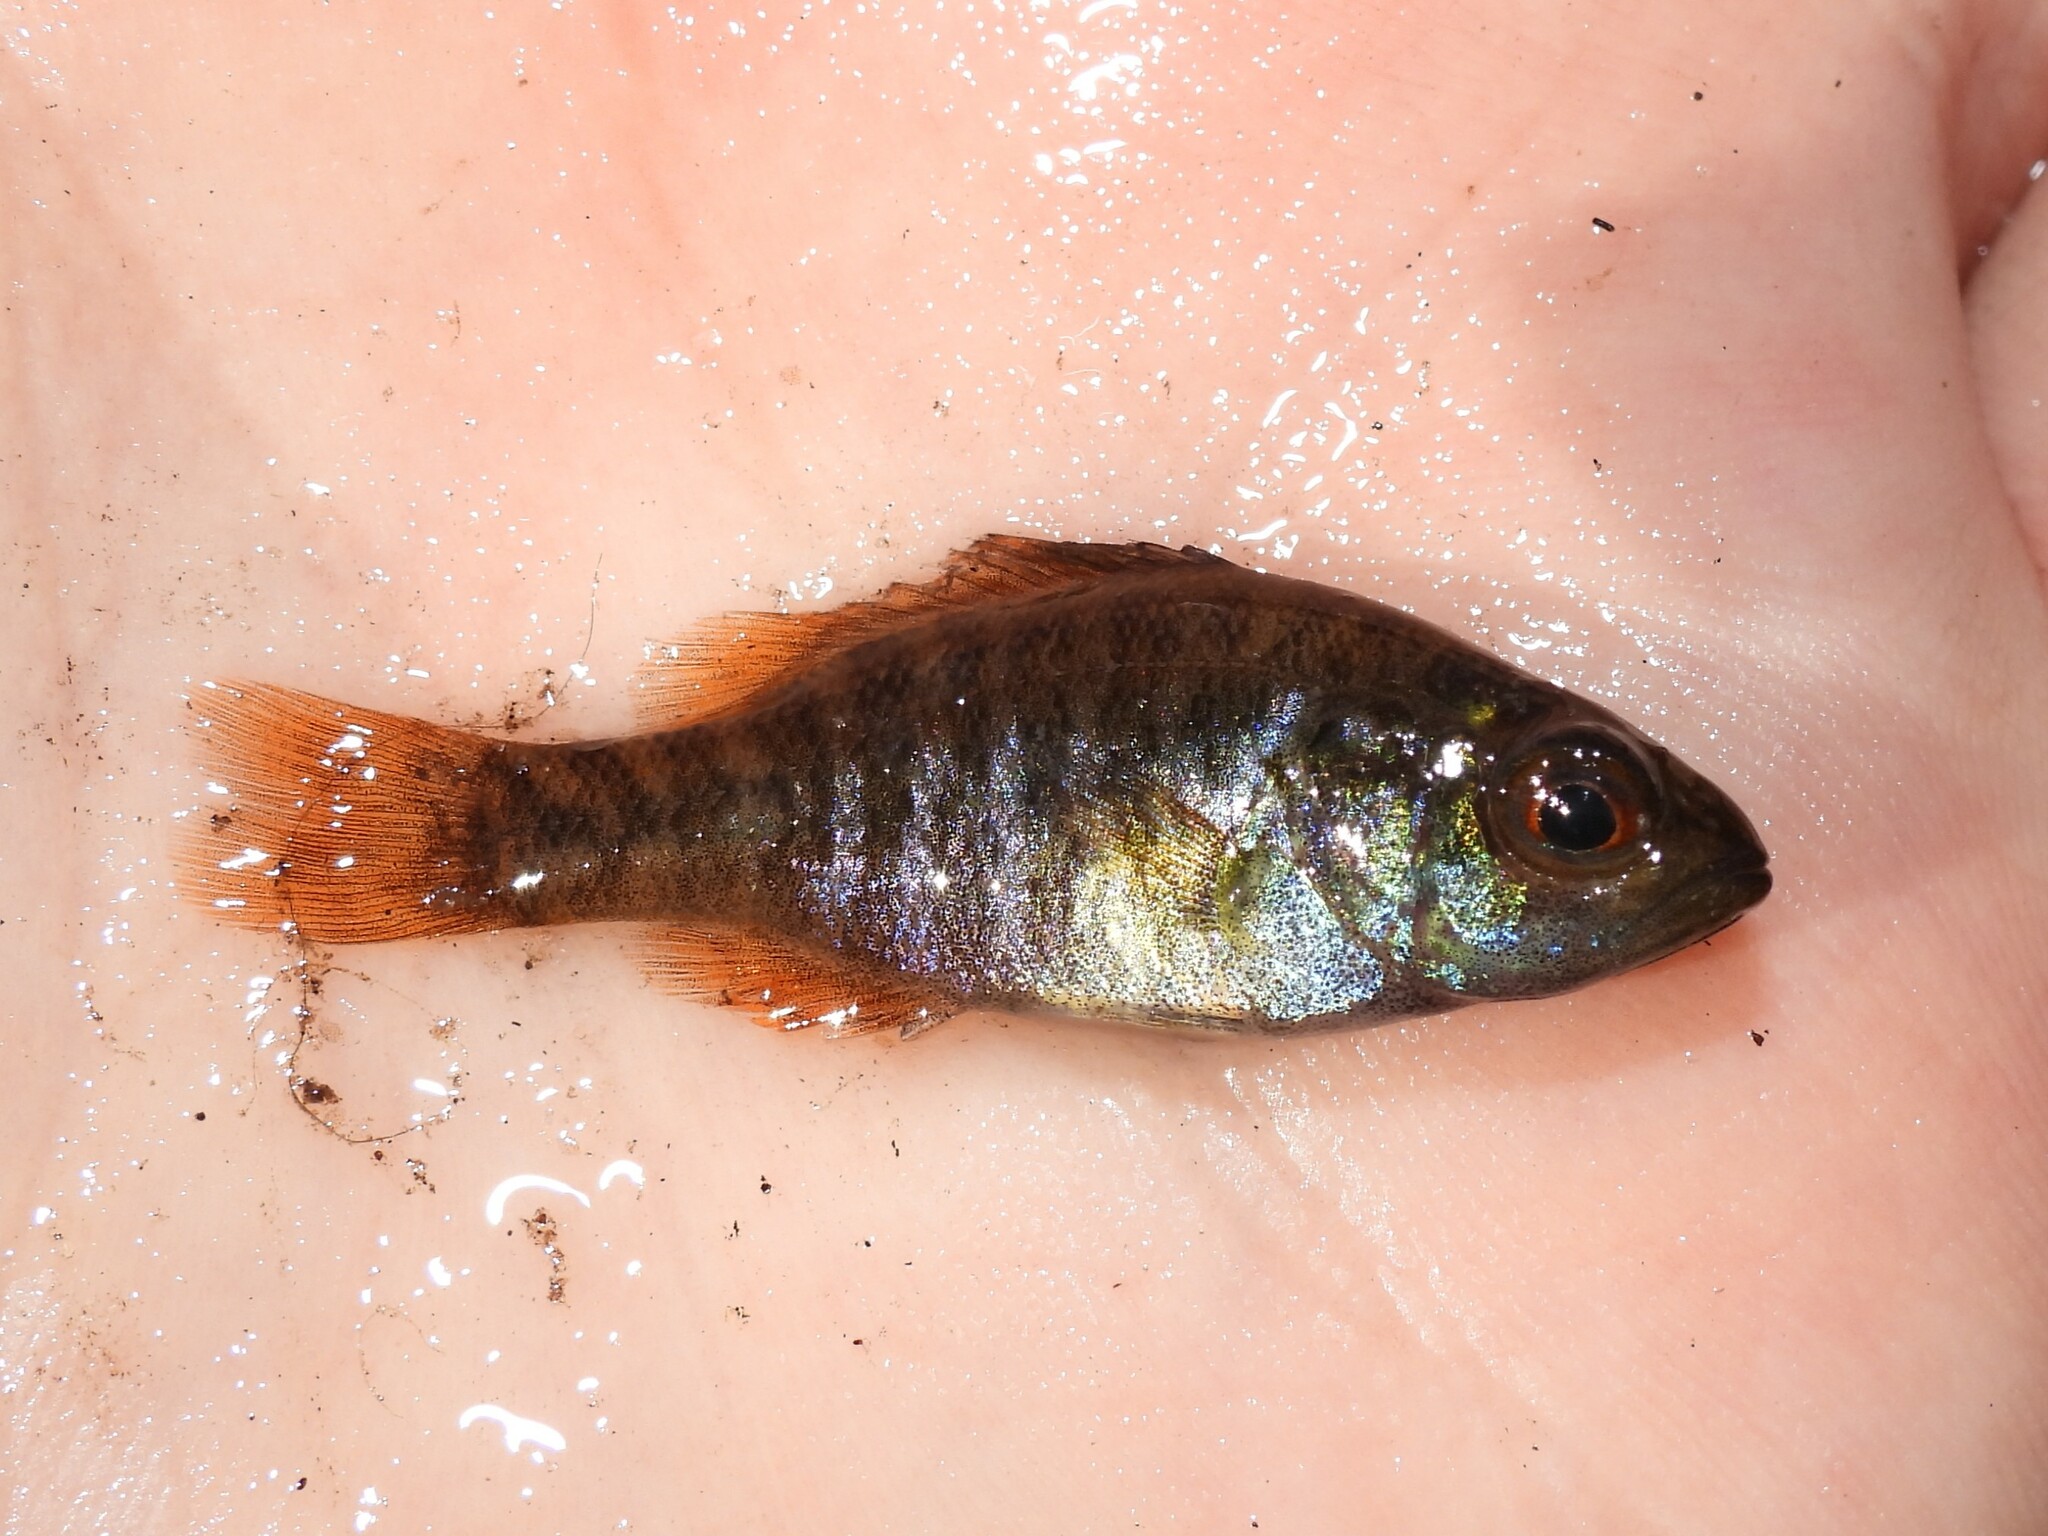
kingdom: Animalia
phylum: Chordata
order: Perciformes
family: Centrarchidae
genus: Lepomis
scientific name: Lepomis gulosus
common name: Warmouth
